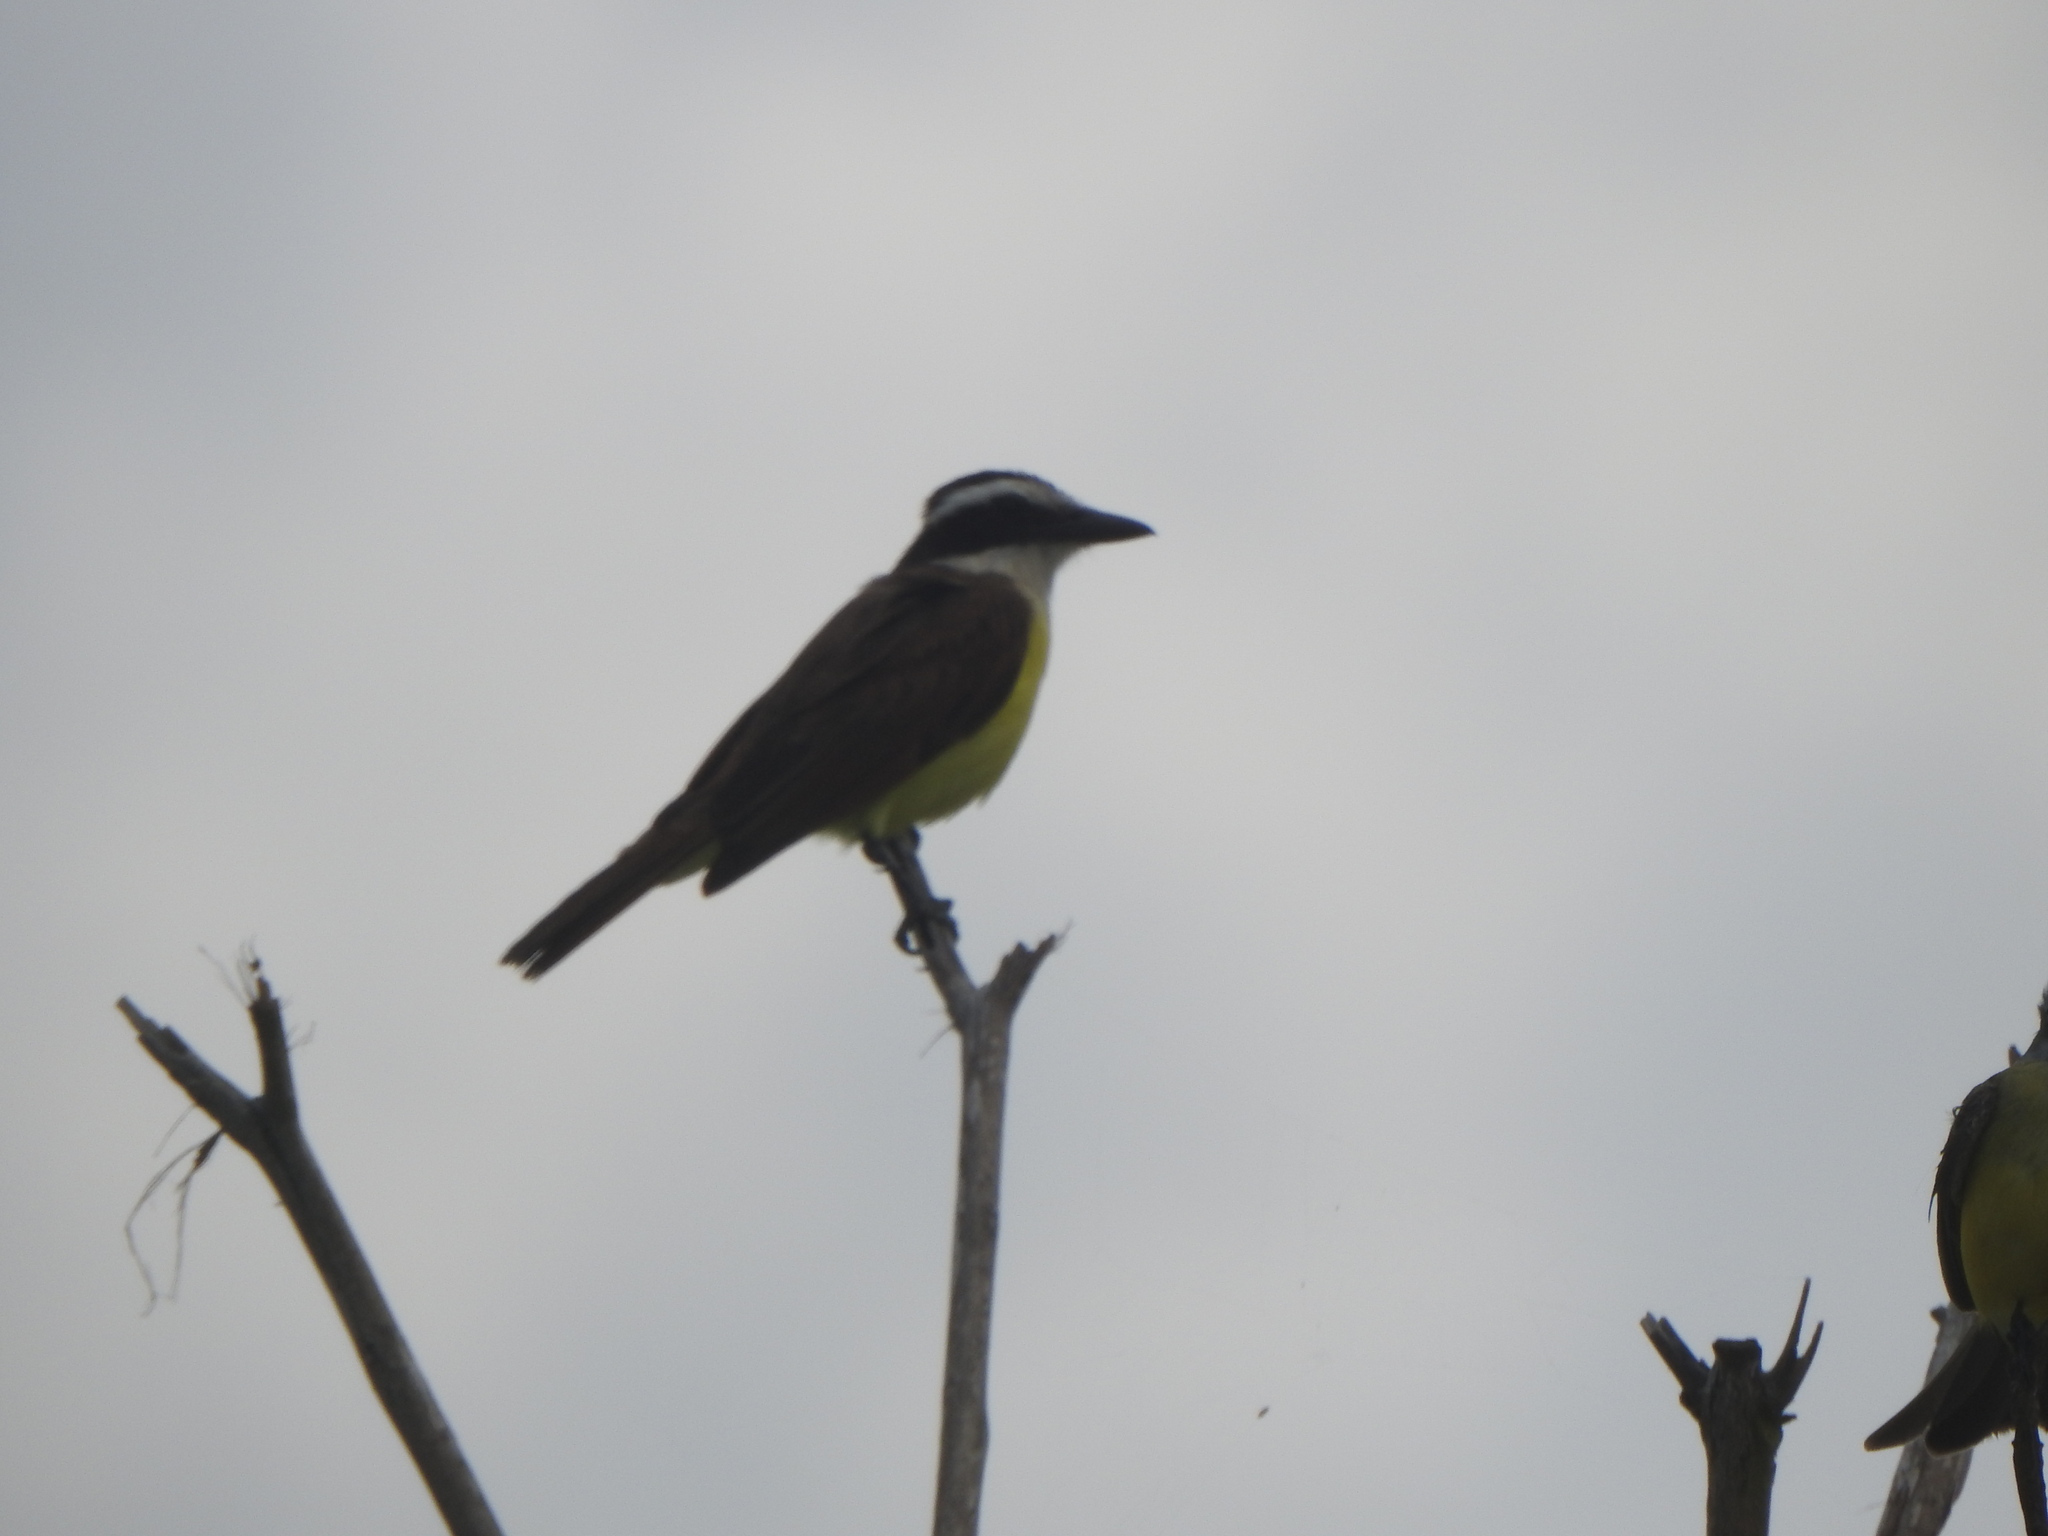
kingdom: Animalia
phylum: Chordata
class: Aves
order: Passeriformes
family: Tyrannidae
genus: Pitangus
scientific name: Pitangus sulphuratus
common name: Great kiskadee
